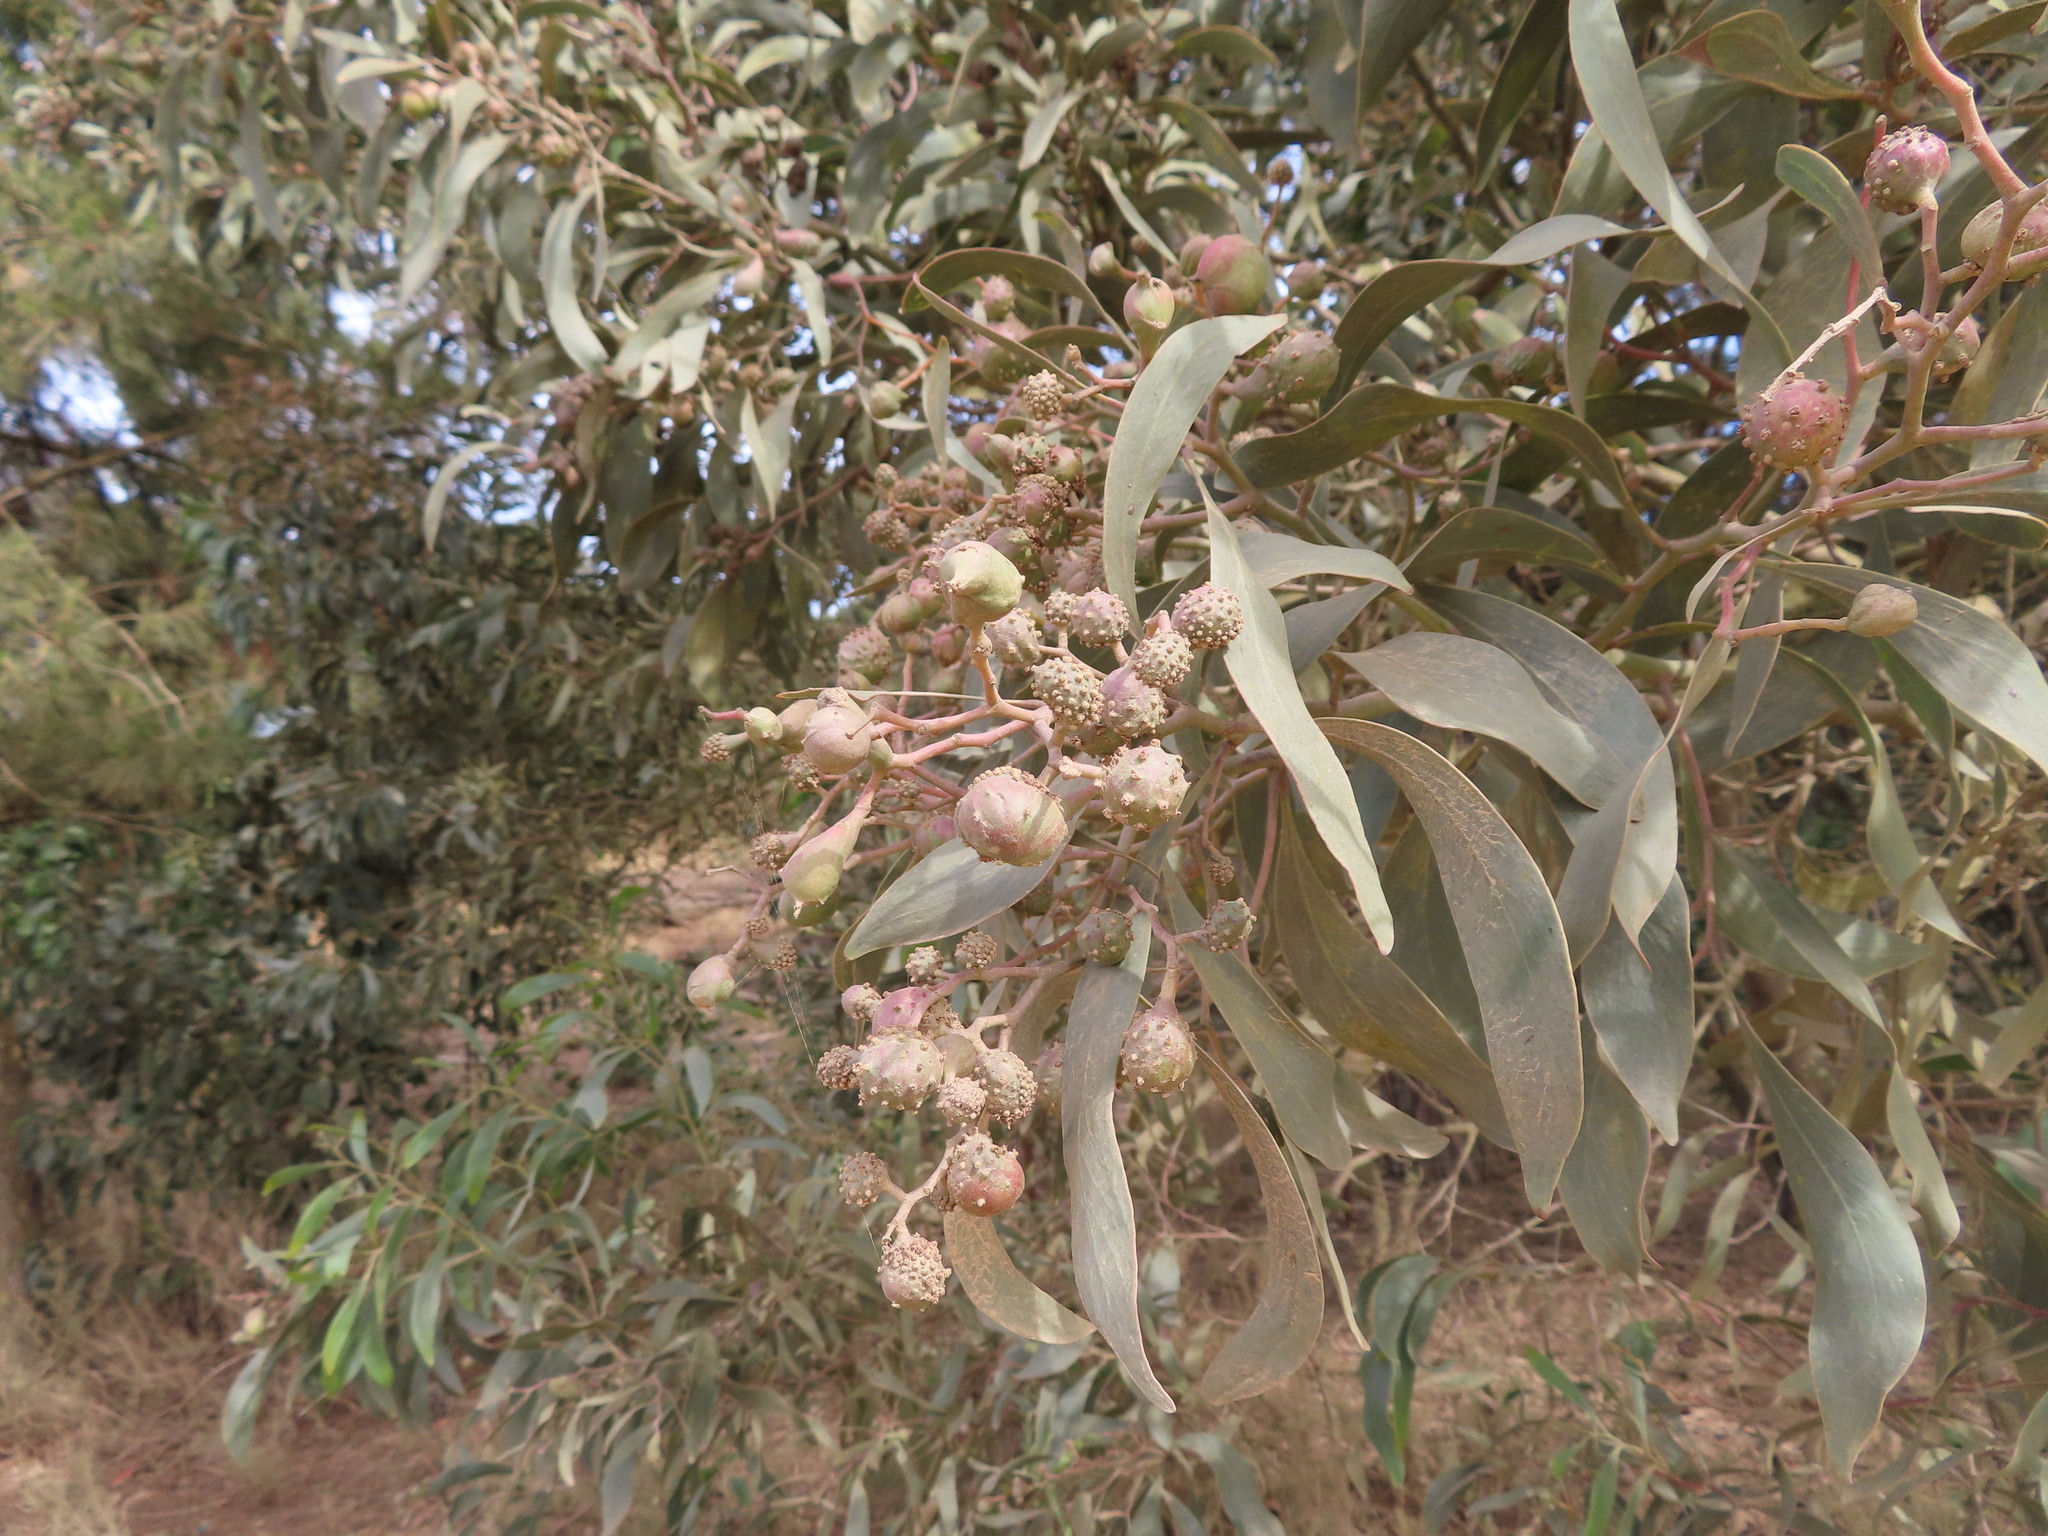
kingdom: Animalia
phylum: Arthropoda
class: Insecta
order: Hymenoptera
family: Pteromalidae
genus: Trichilogaster
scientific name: Trichilogaster signiventris
